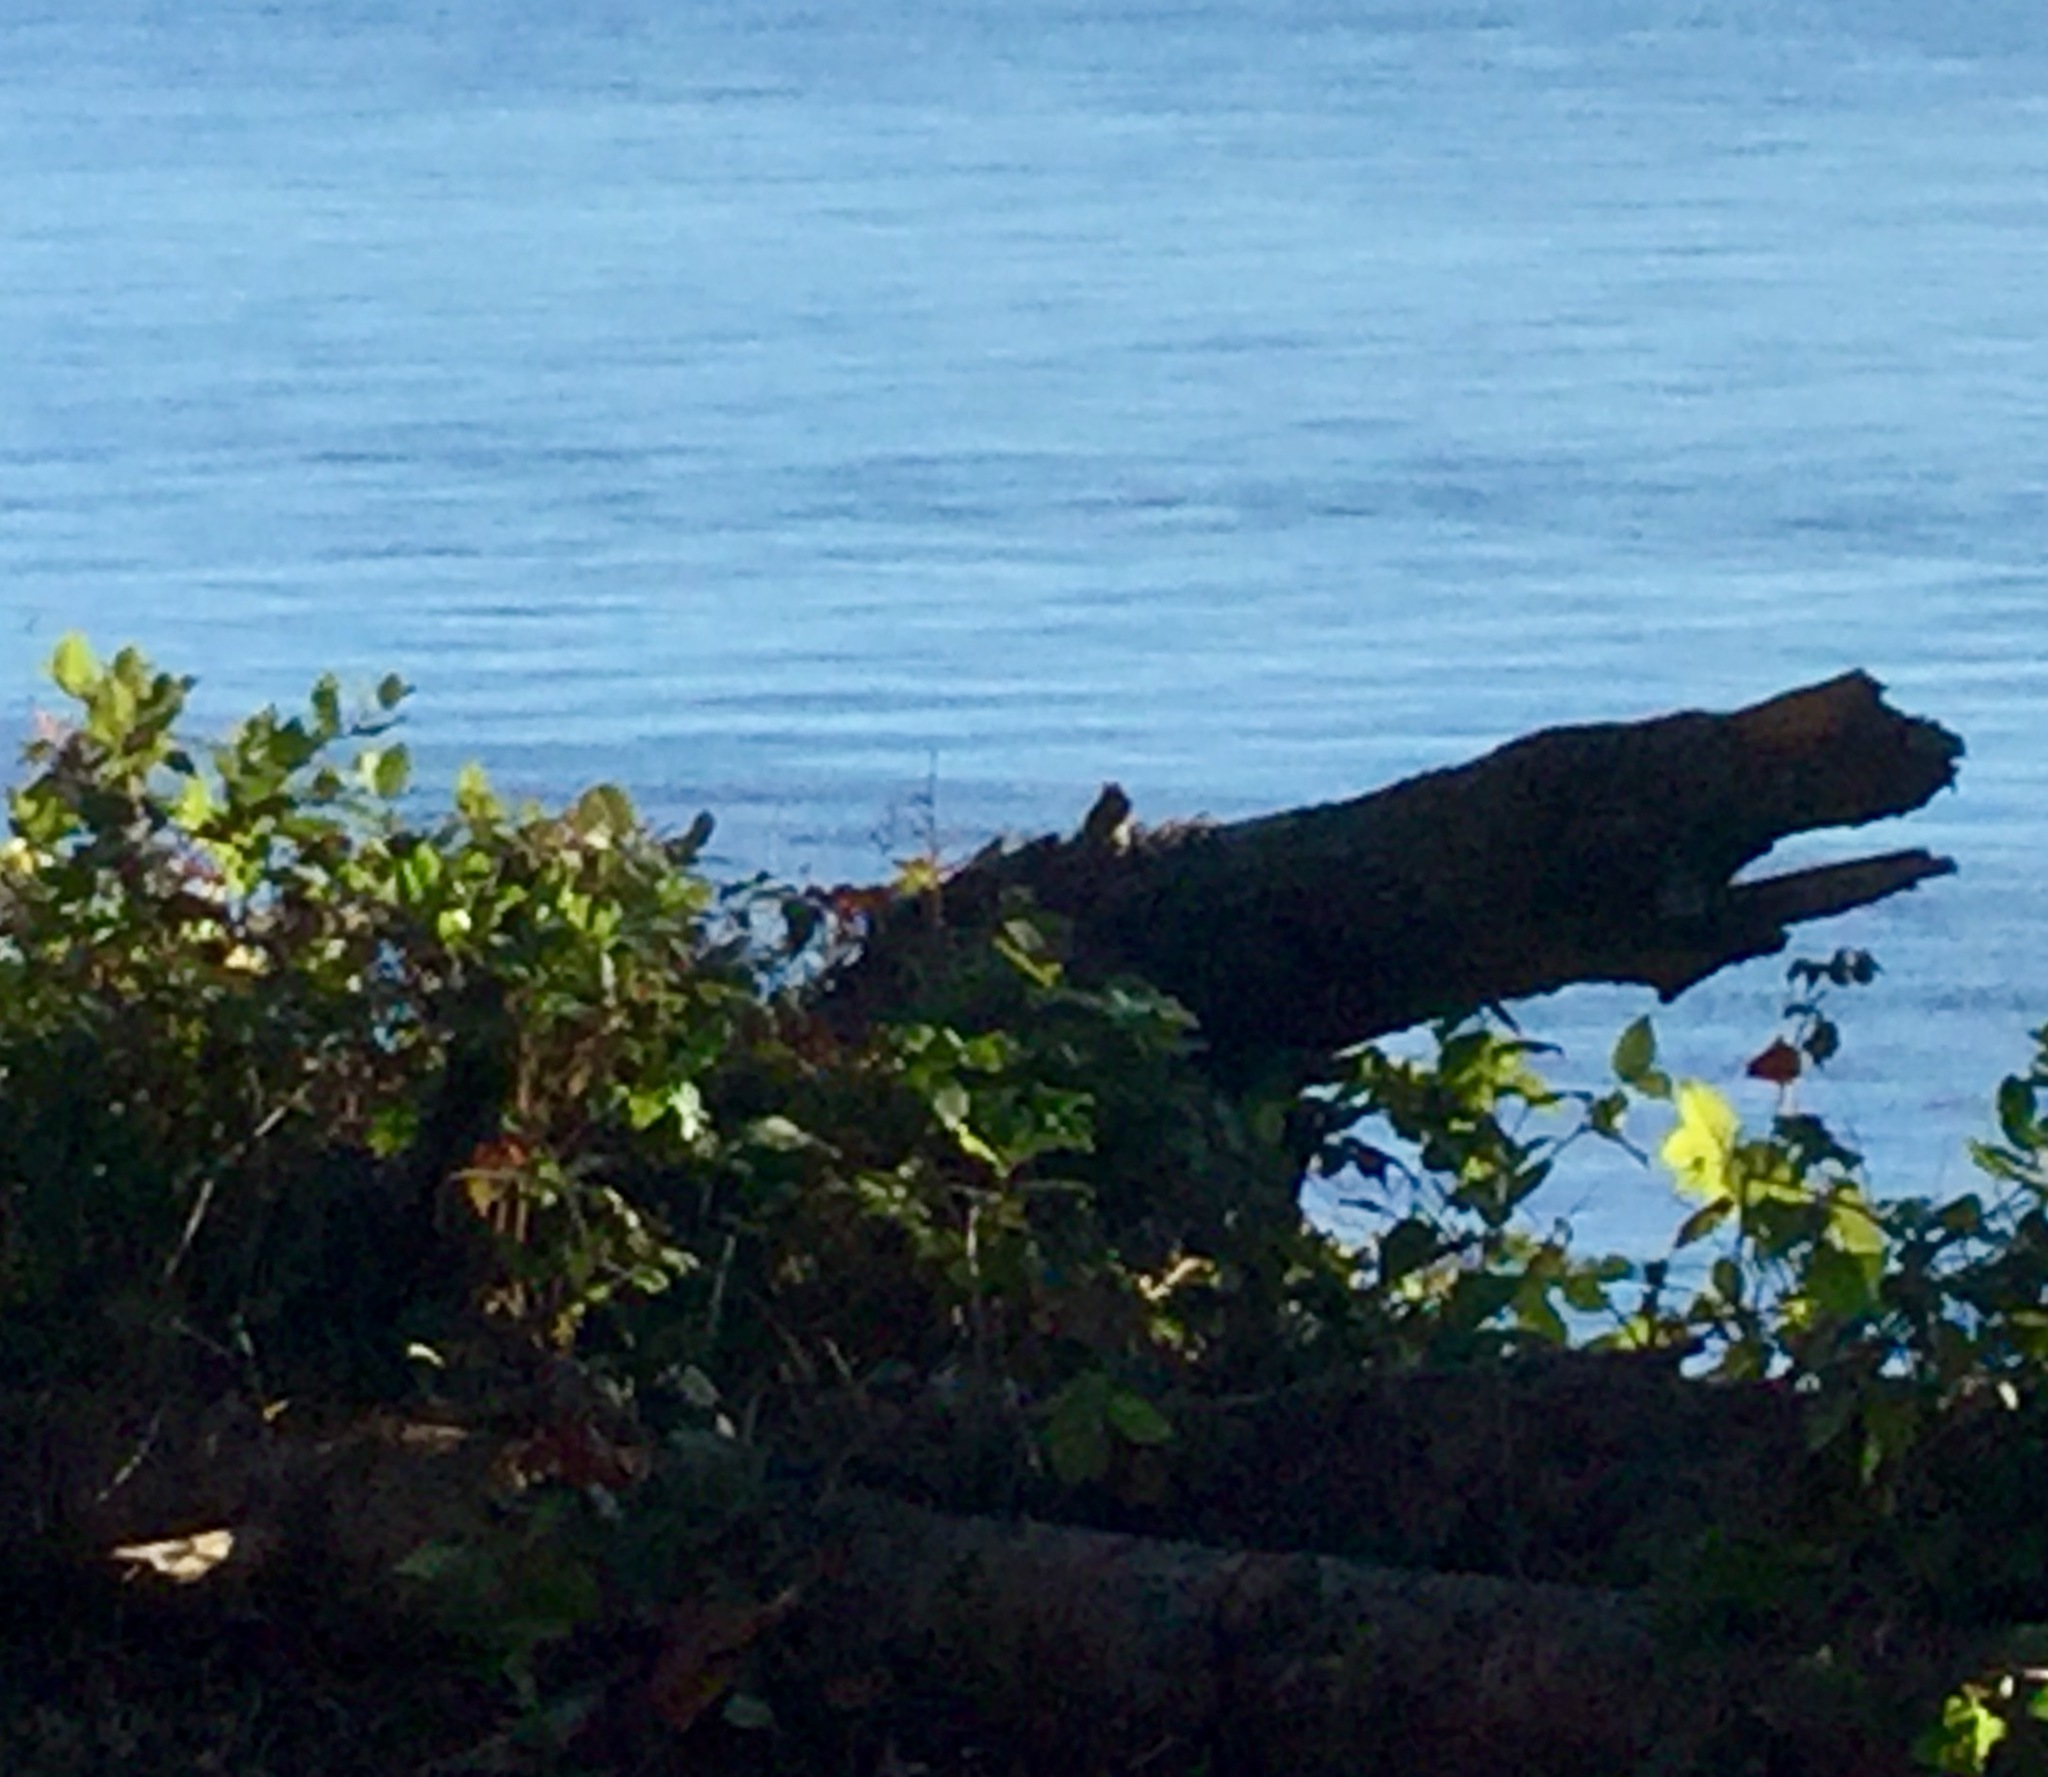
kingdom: Animalia
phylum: Chordata
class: Mammalia
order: Rodentia
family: Sciuridae
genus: Tamias
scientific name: Tamias townsendii
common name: Townsend's chipmunk
